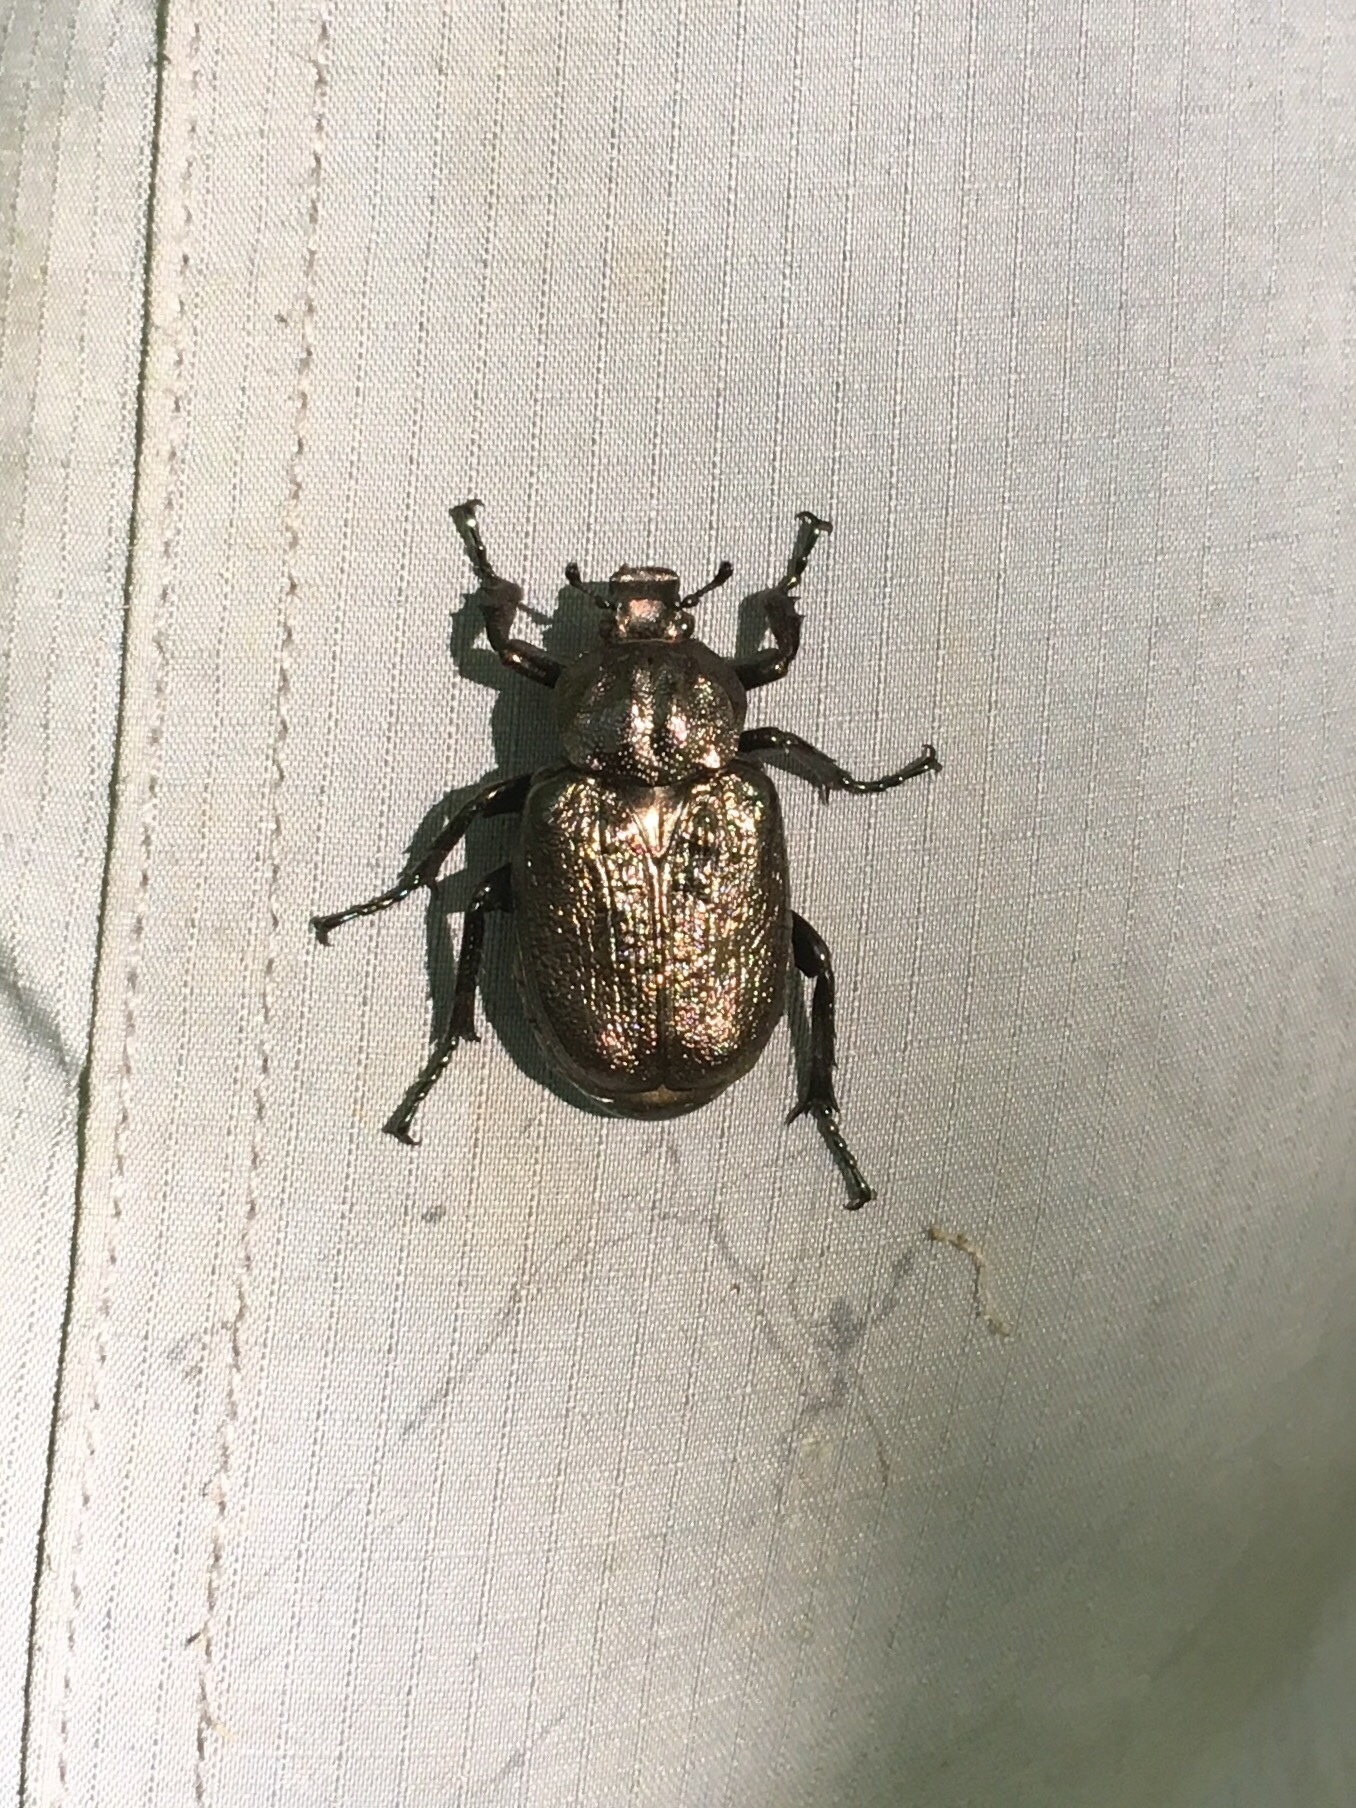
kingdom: Animalia
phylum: Arthropoda
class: Insecta
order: Coleoptera
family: Scarabaeidae
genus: Osmoderma
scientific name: Osmoderma scabra
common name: Rough hermit beetle
